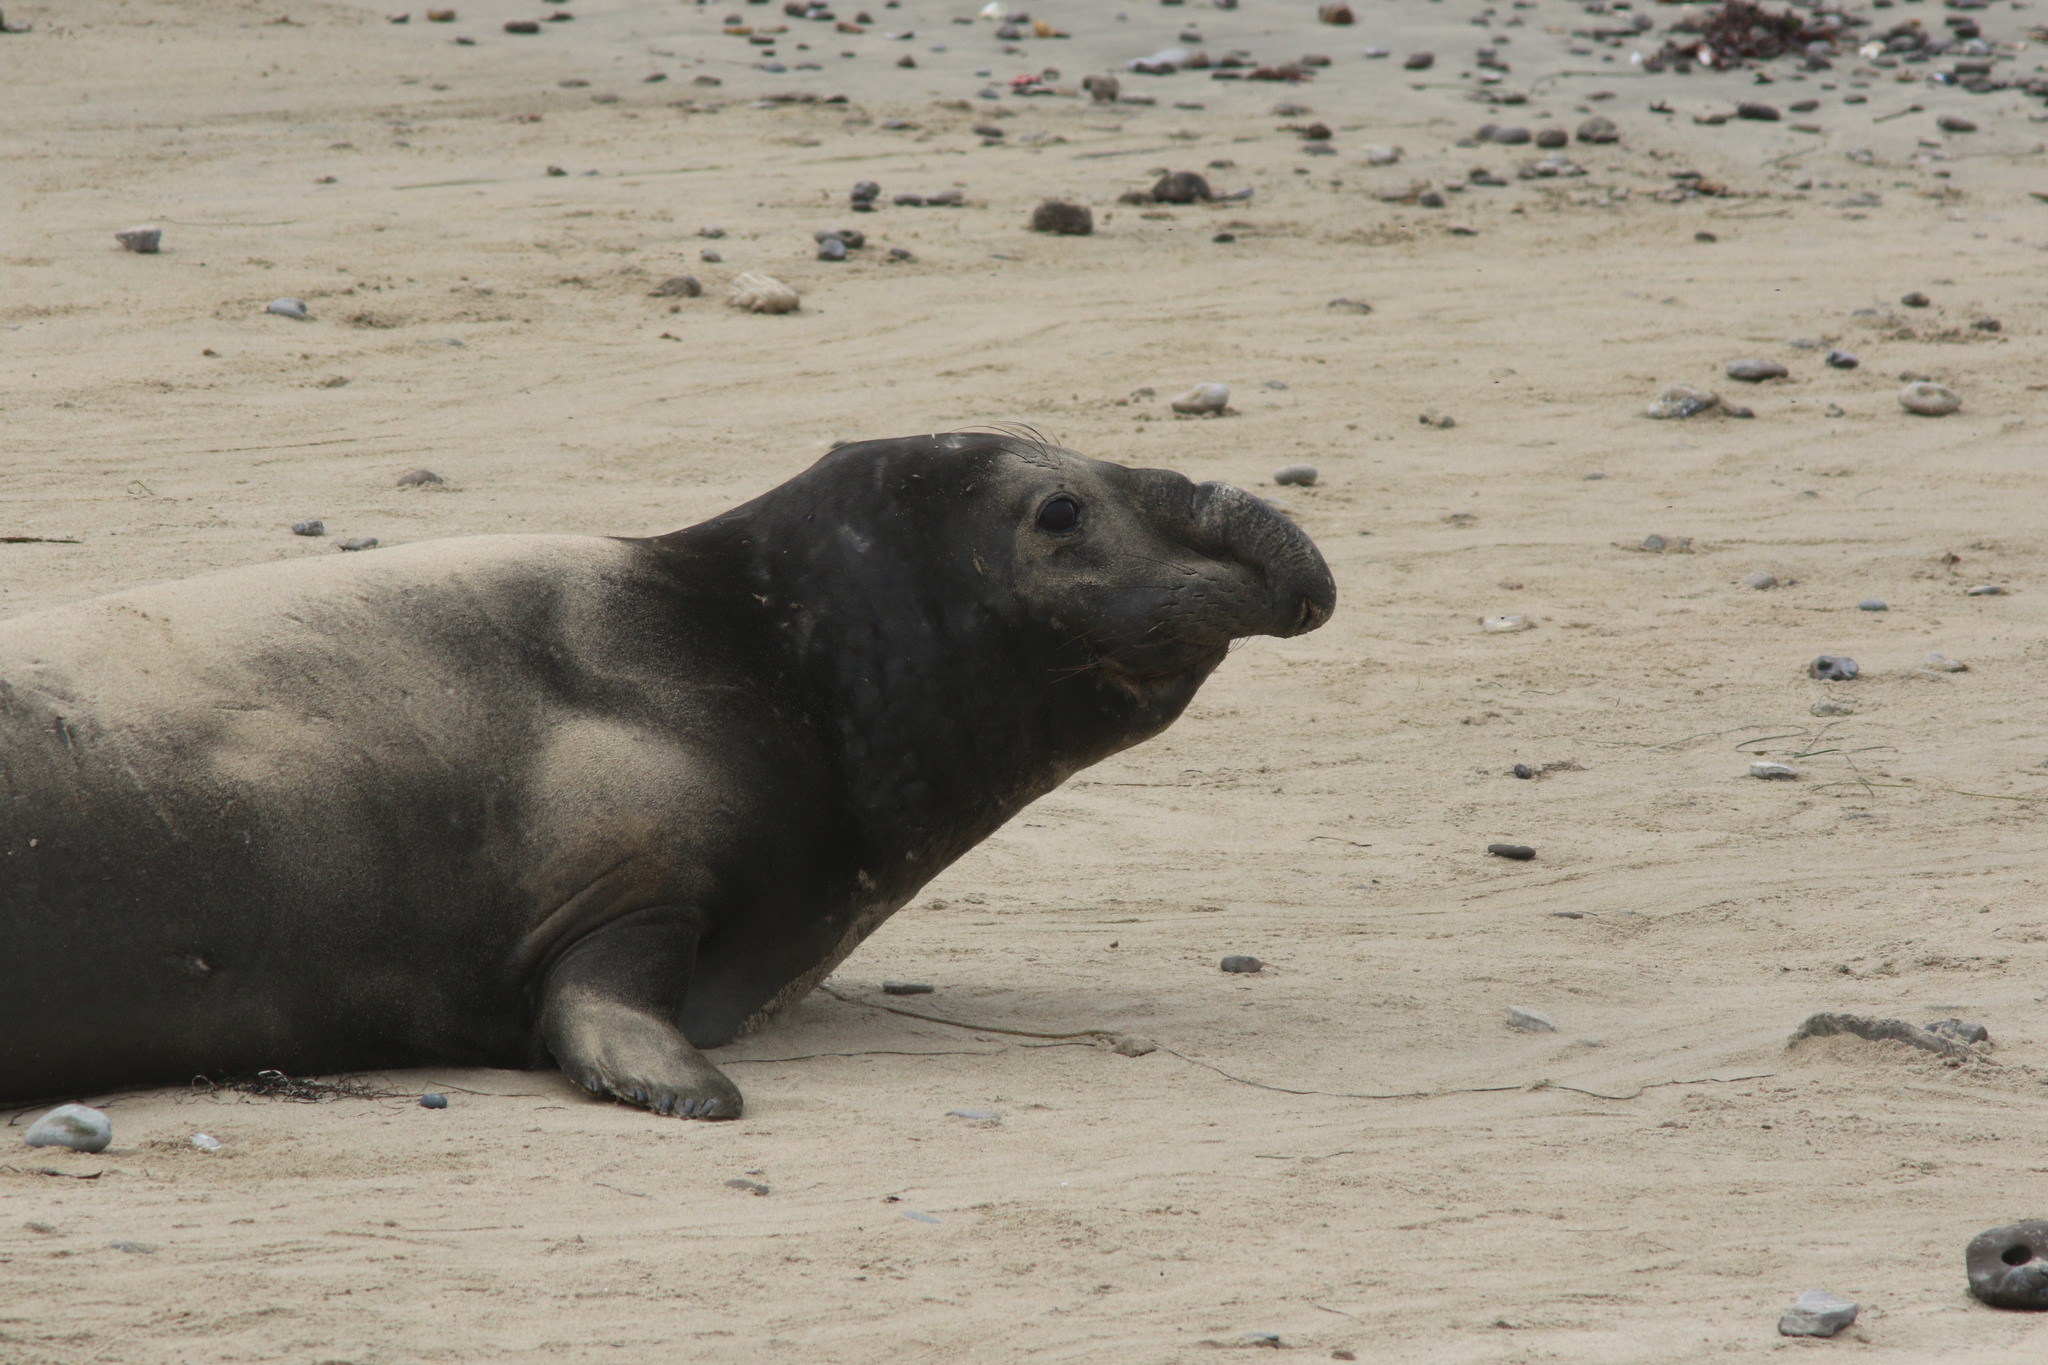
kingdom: Animalia
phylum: Chordata
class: Mammalia
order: Carnivora
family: Phocidae
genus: Mirounga
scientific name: Mirounga angustirostris
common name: Northern elephant seal
